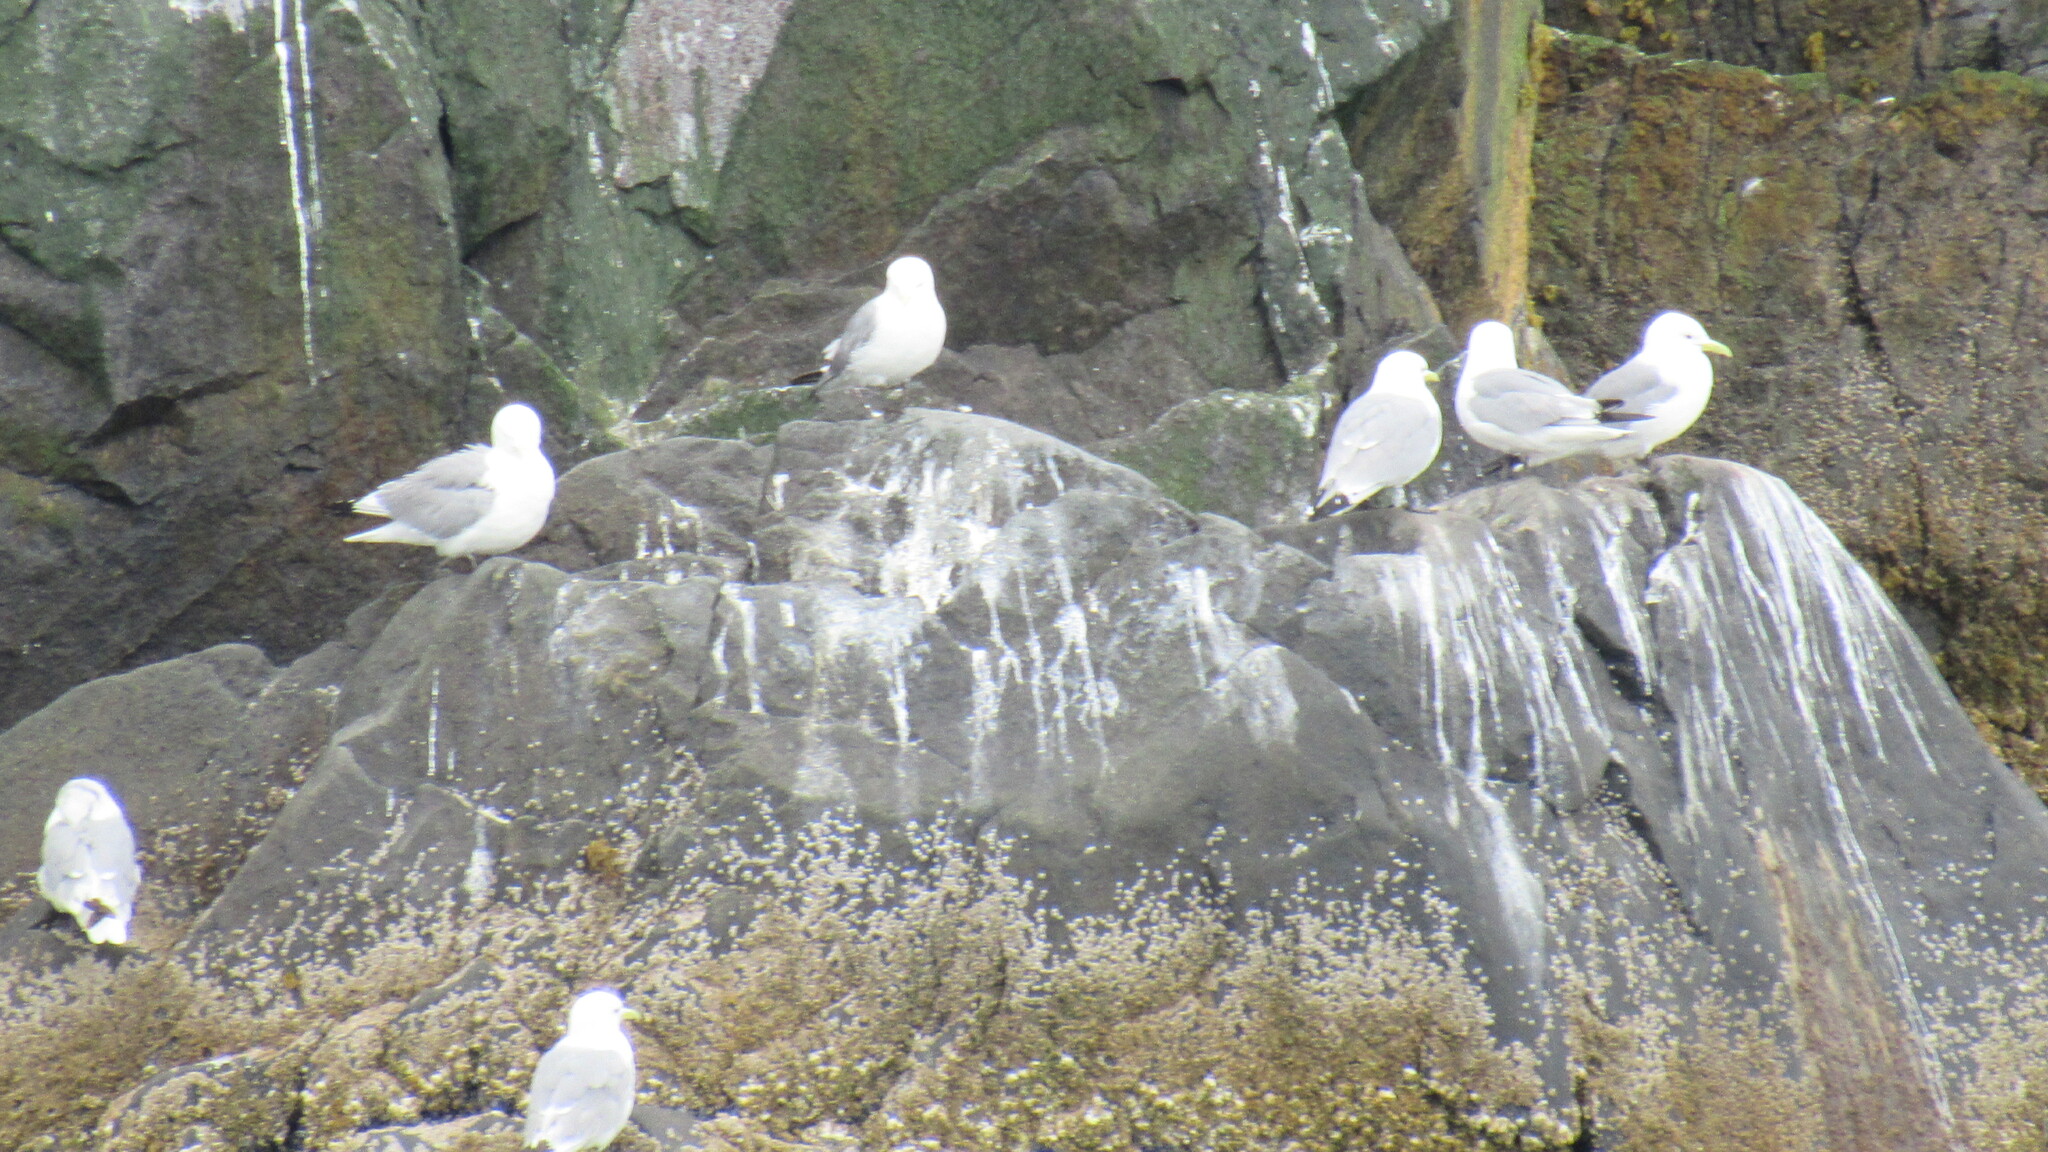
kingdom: Animalia
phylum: Chordata
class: Aves
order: Charadriiformes
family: Laridae
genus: Rissa
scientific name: Rissa tridactyla
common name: Black-legged kittiwake
